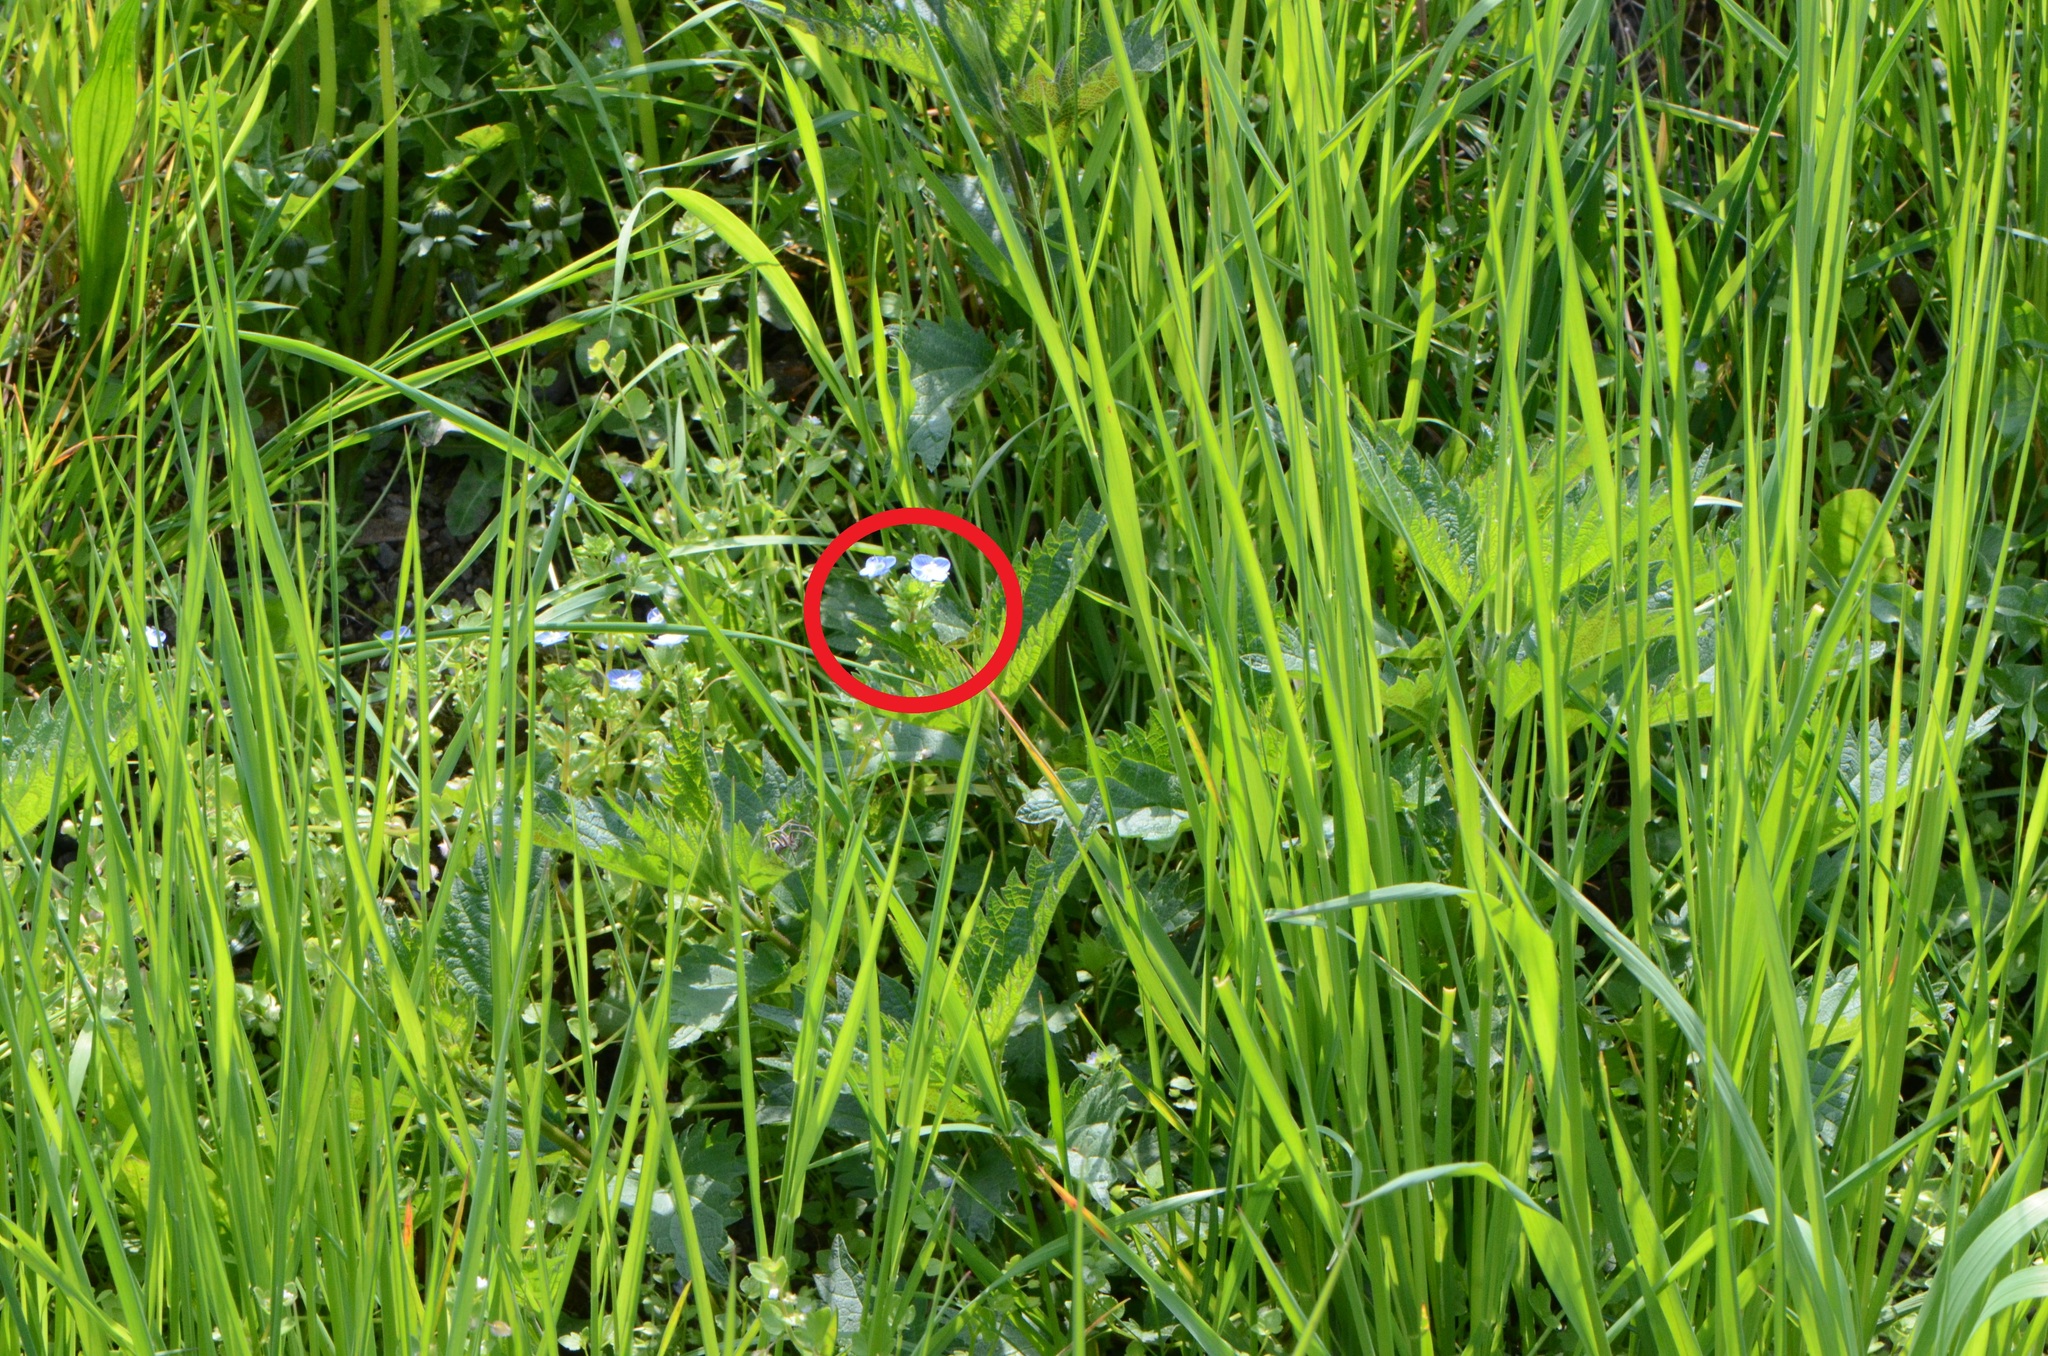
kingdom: Plantae
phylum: Tracheophyta
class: Magnoliopsida
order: Lamiales
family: Plantaginaceae
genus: Veronica
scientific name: Veronica persica
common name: Common field-speedwell
